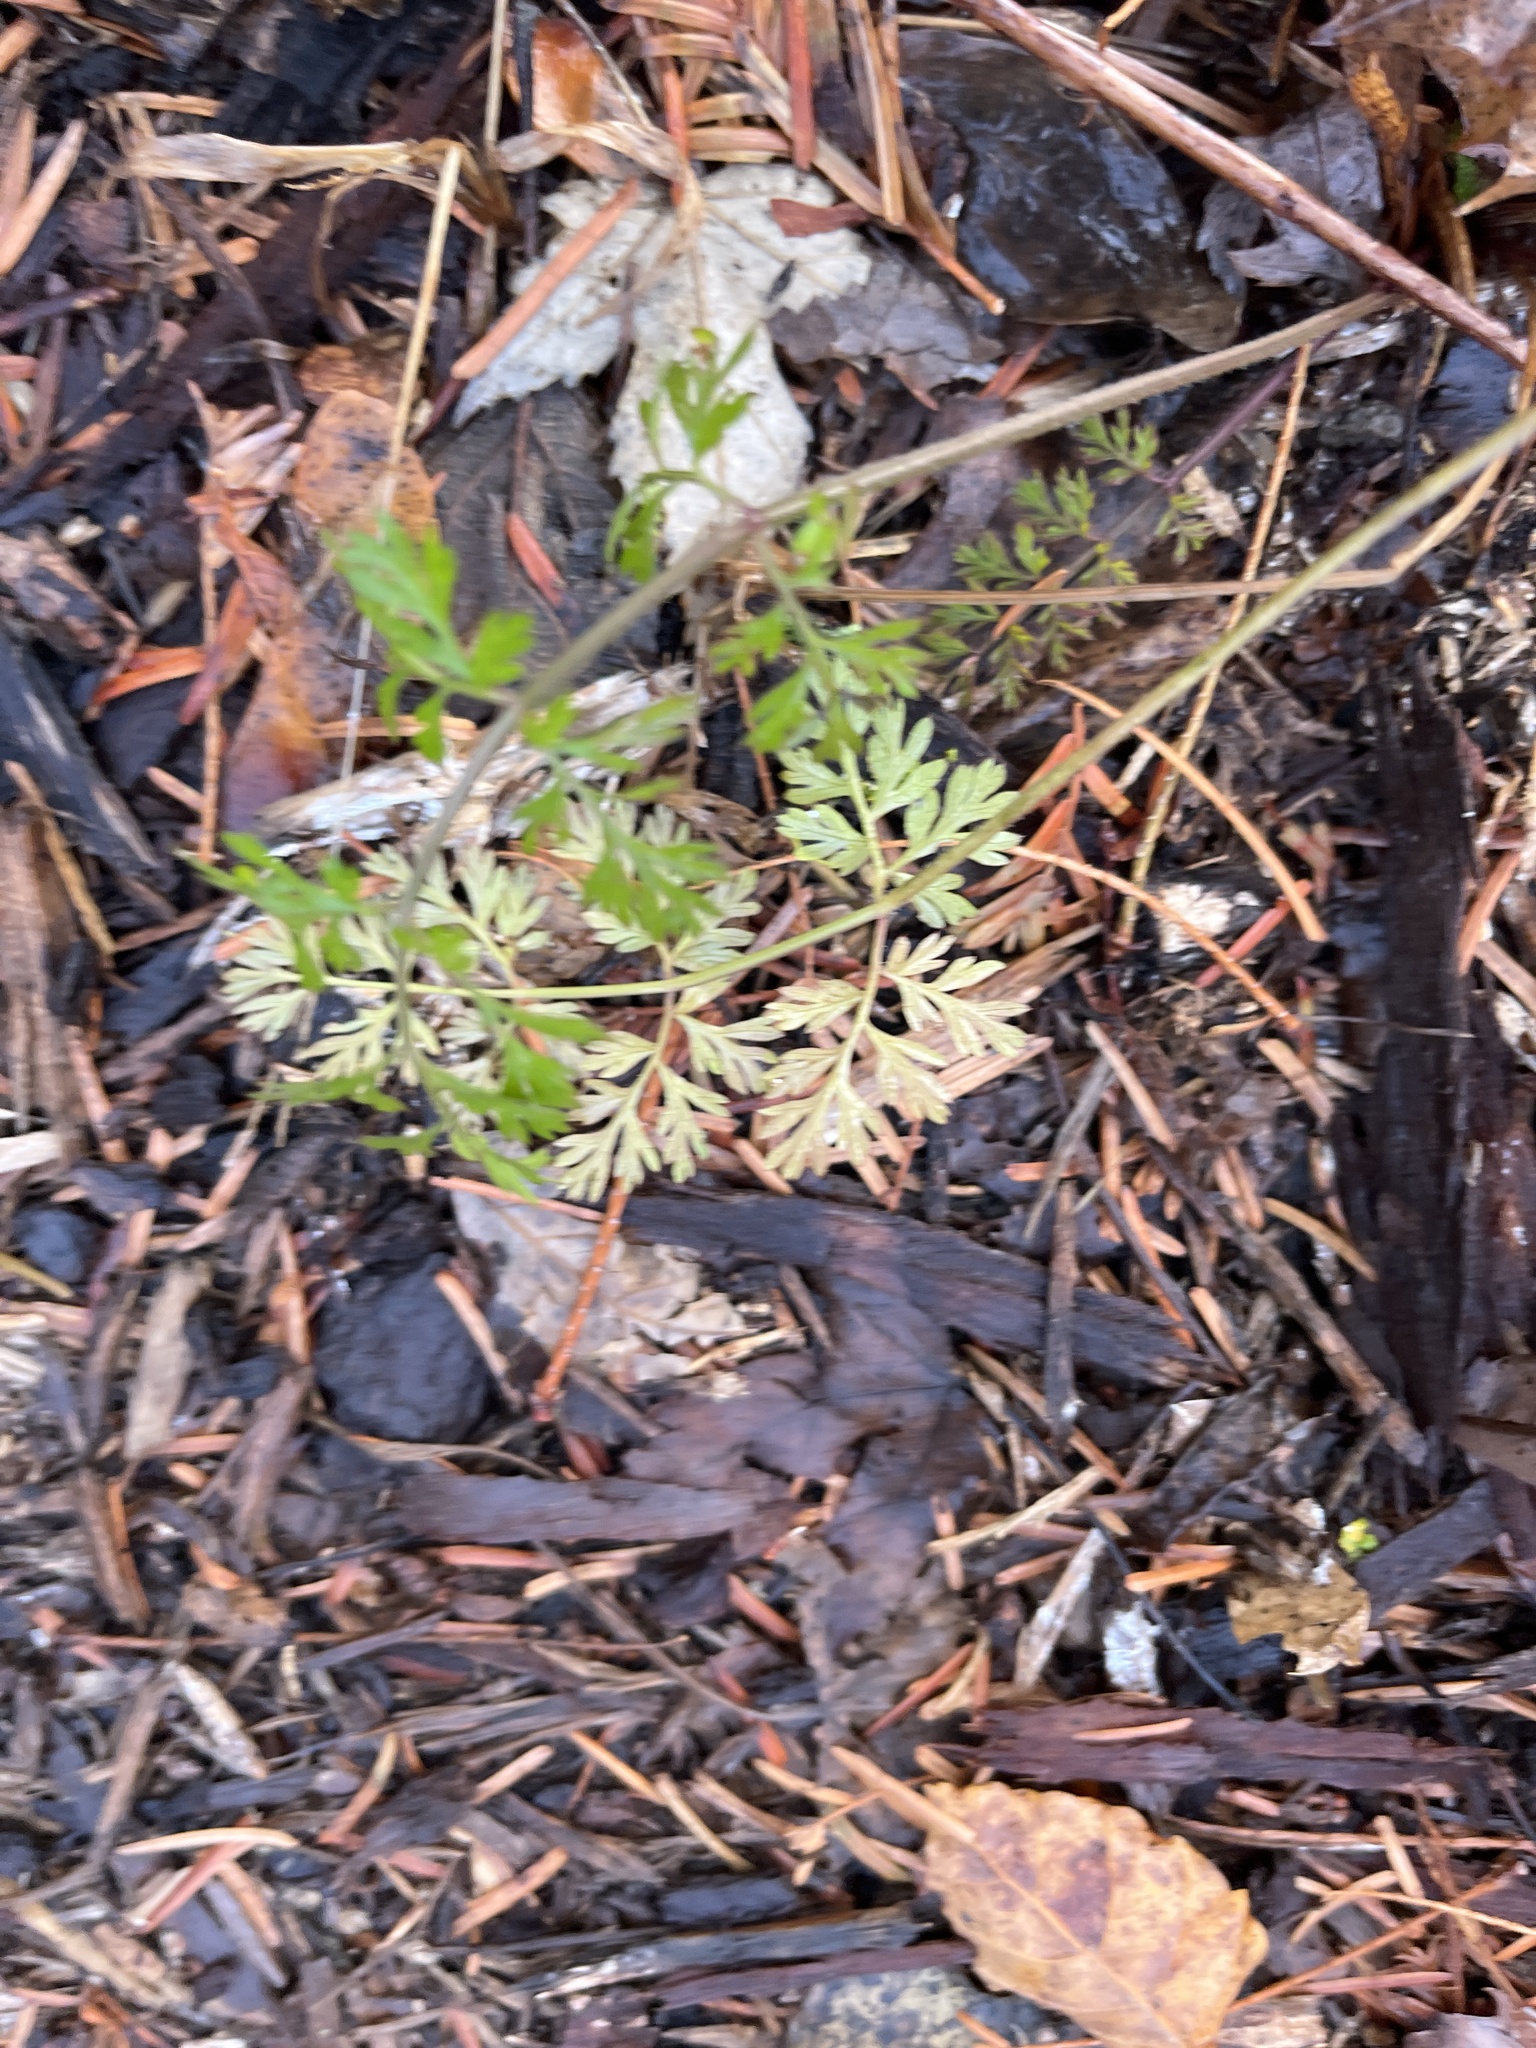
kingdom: Plantae
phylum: Tracheophyta
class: Magnoliopsida
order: Apiales
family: Apiaceae
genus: Daucus
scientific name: Daucus carota
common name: Wild carrot
